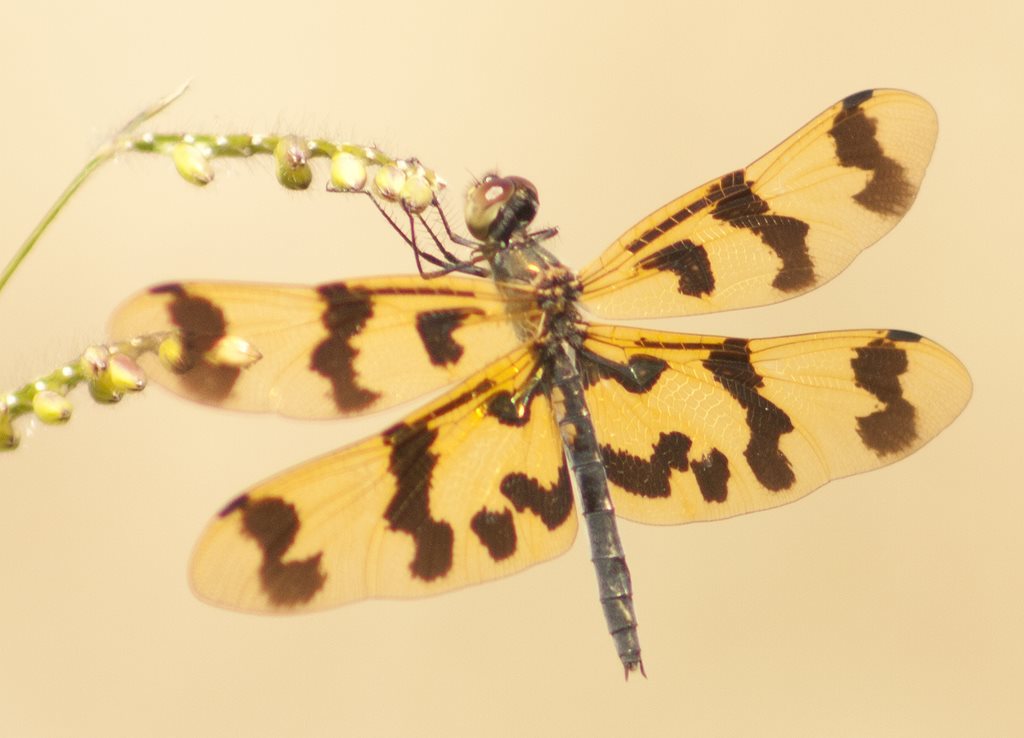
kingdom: Animalia
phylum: Arthropoda
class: Insecta
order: Odonata
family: Libellulidae
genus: Rhyothemis
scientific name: Rhyothemis graphiptera
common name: Graphic flutterer
